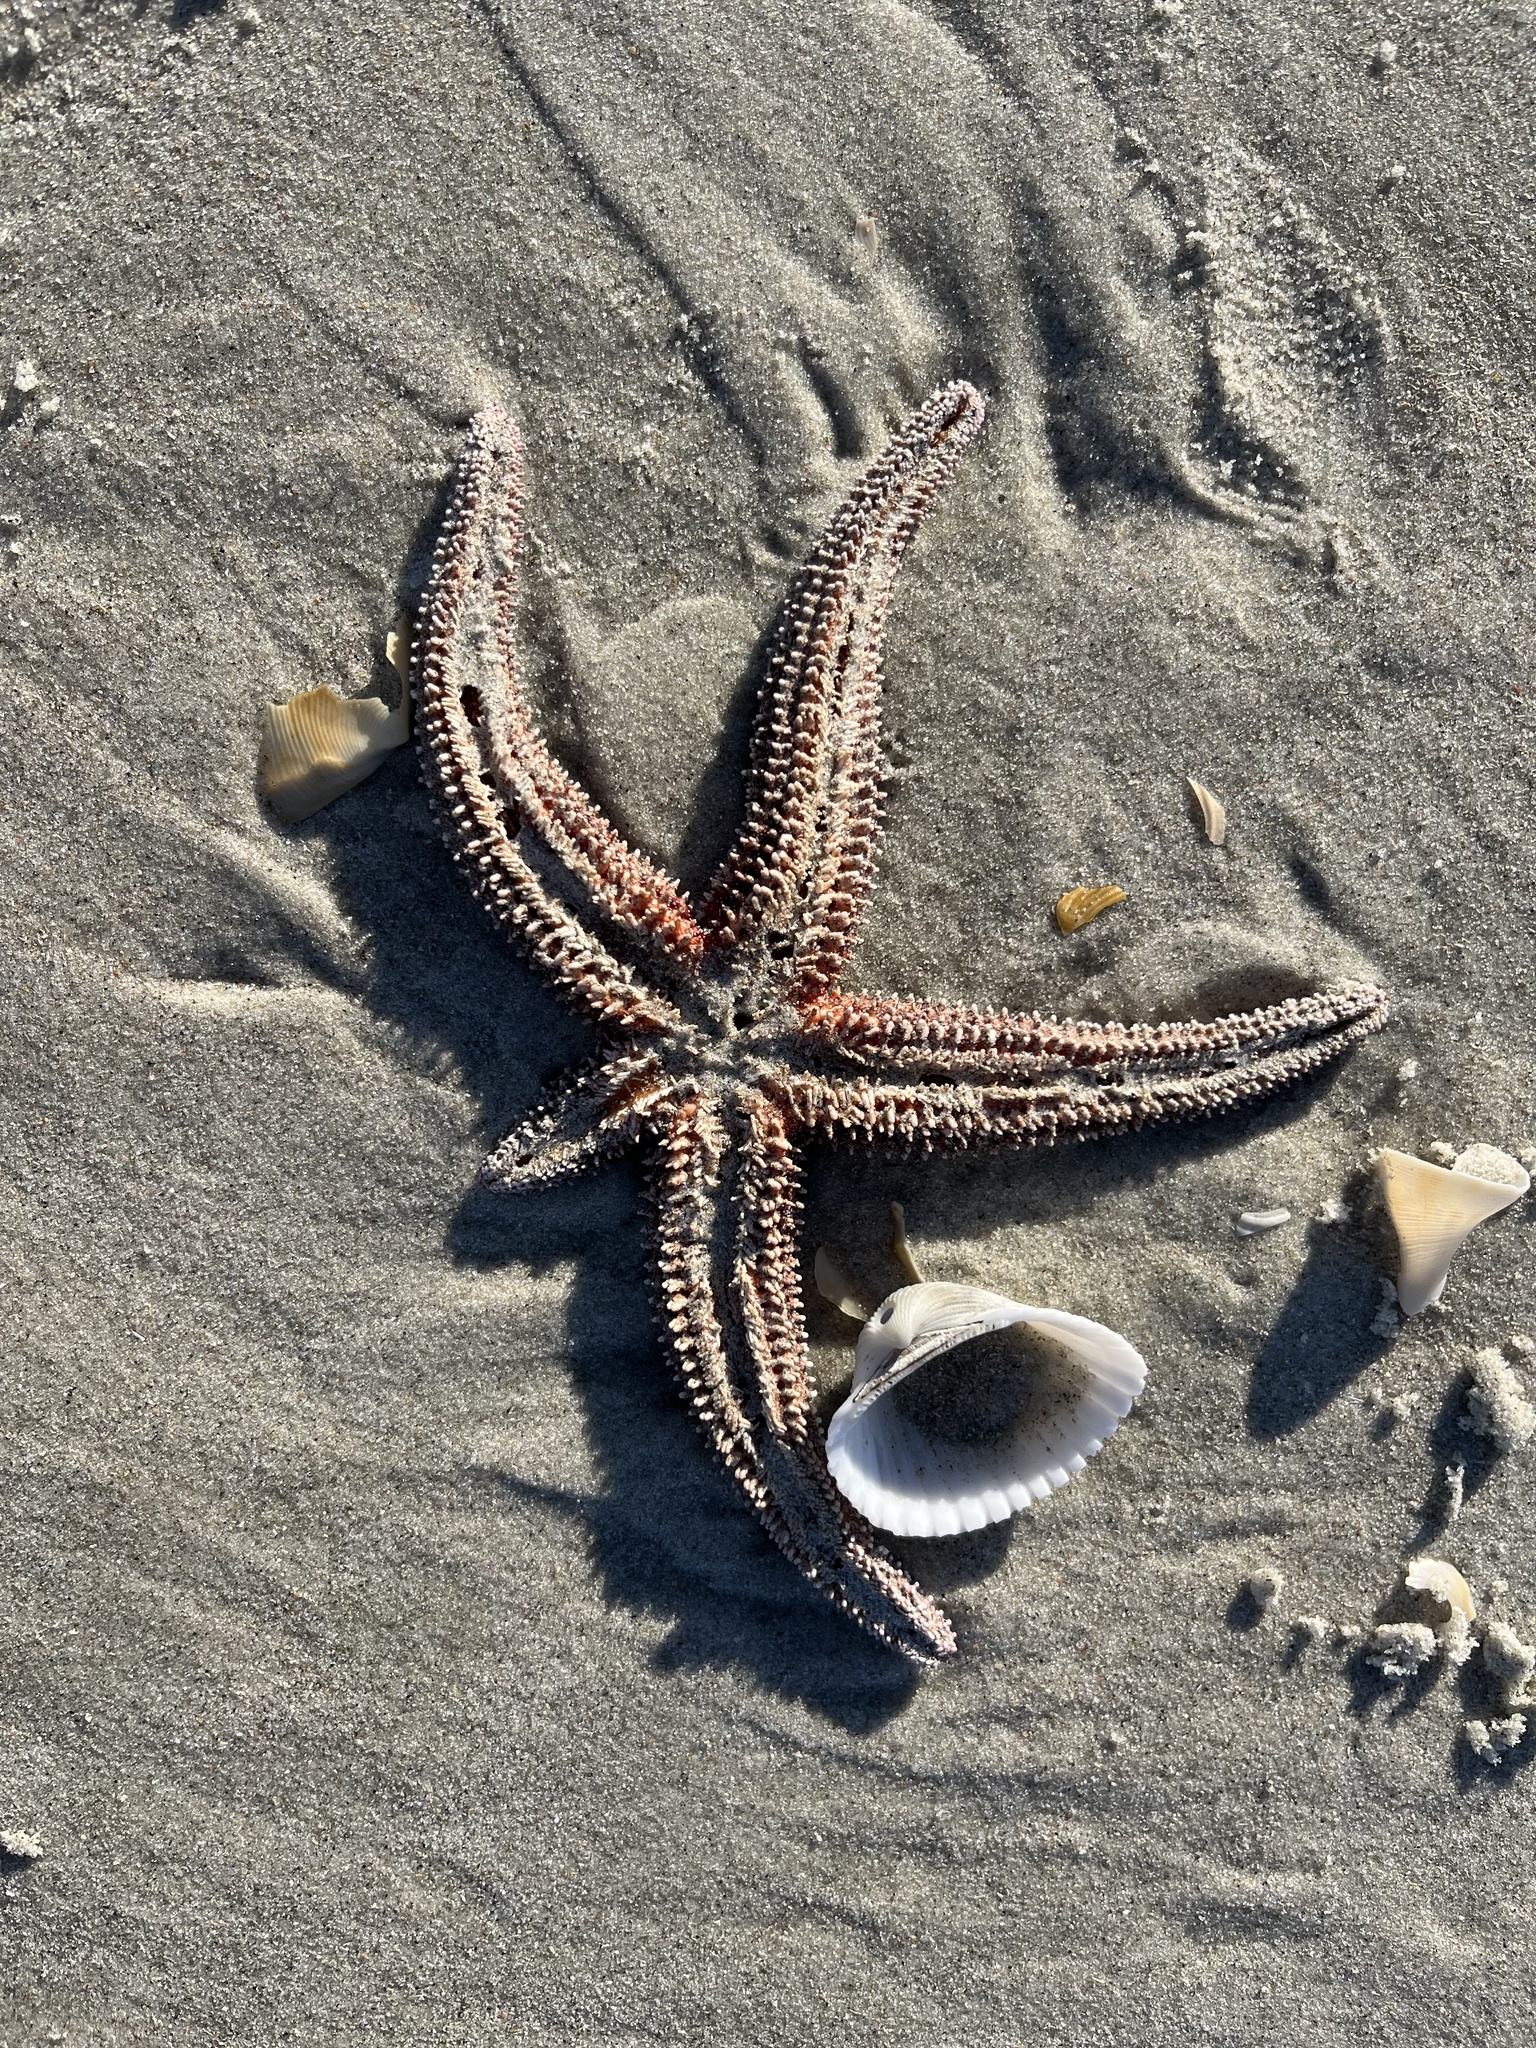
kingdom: Animalia
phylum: Echinodermata
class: Asteroidea
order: Forcipulatida
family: Asteriidae
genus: Asterias
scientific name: Asterias forbesi
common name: Forbes's sea star
